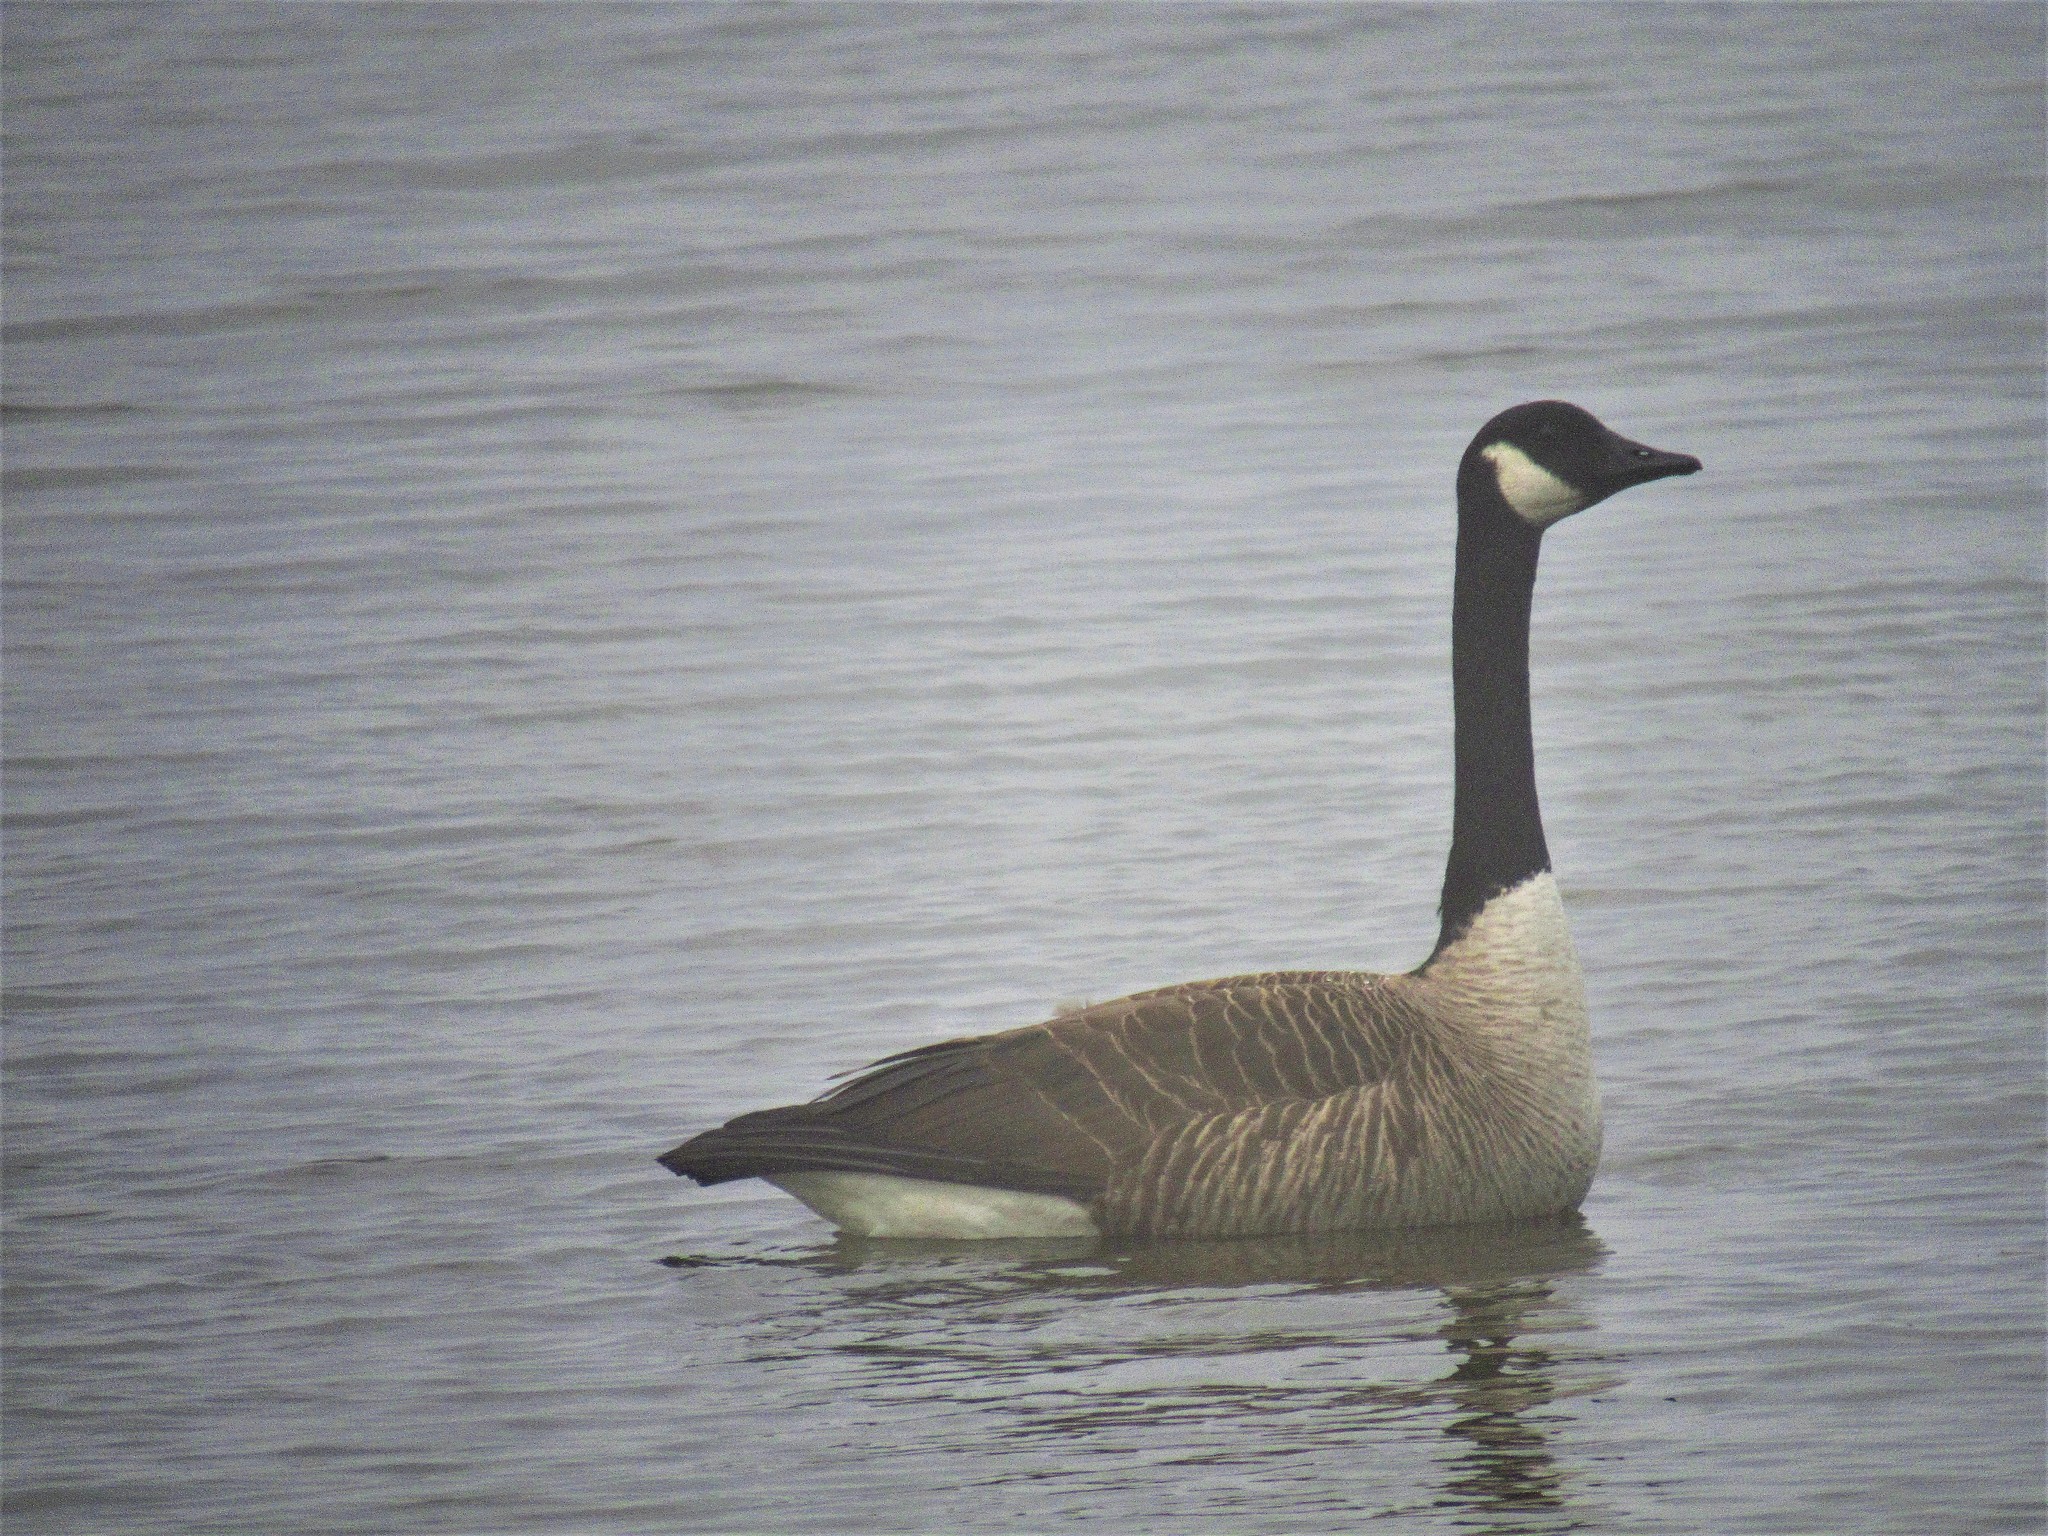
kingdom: Animalia
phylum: Chordata
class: Aves
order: Anseriformes
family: Anatidae
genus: Branta
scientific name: Branta canadensis
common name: Canada goose
